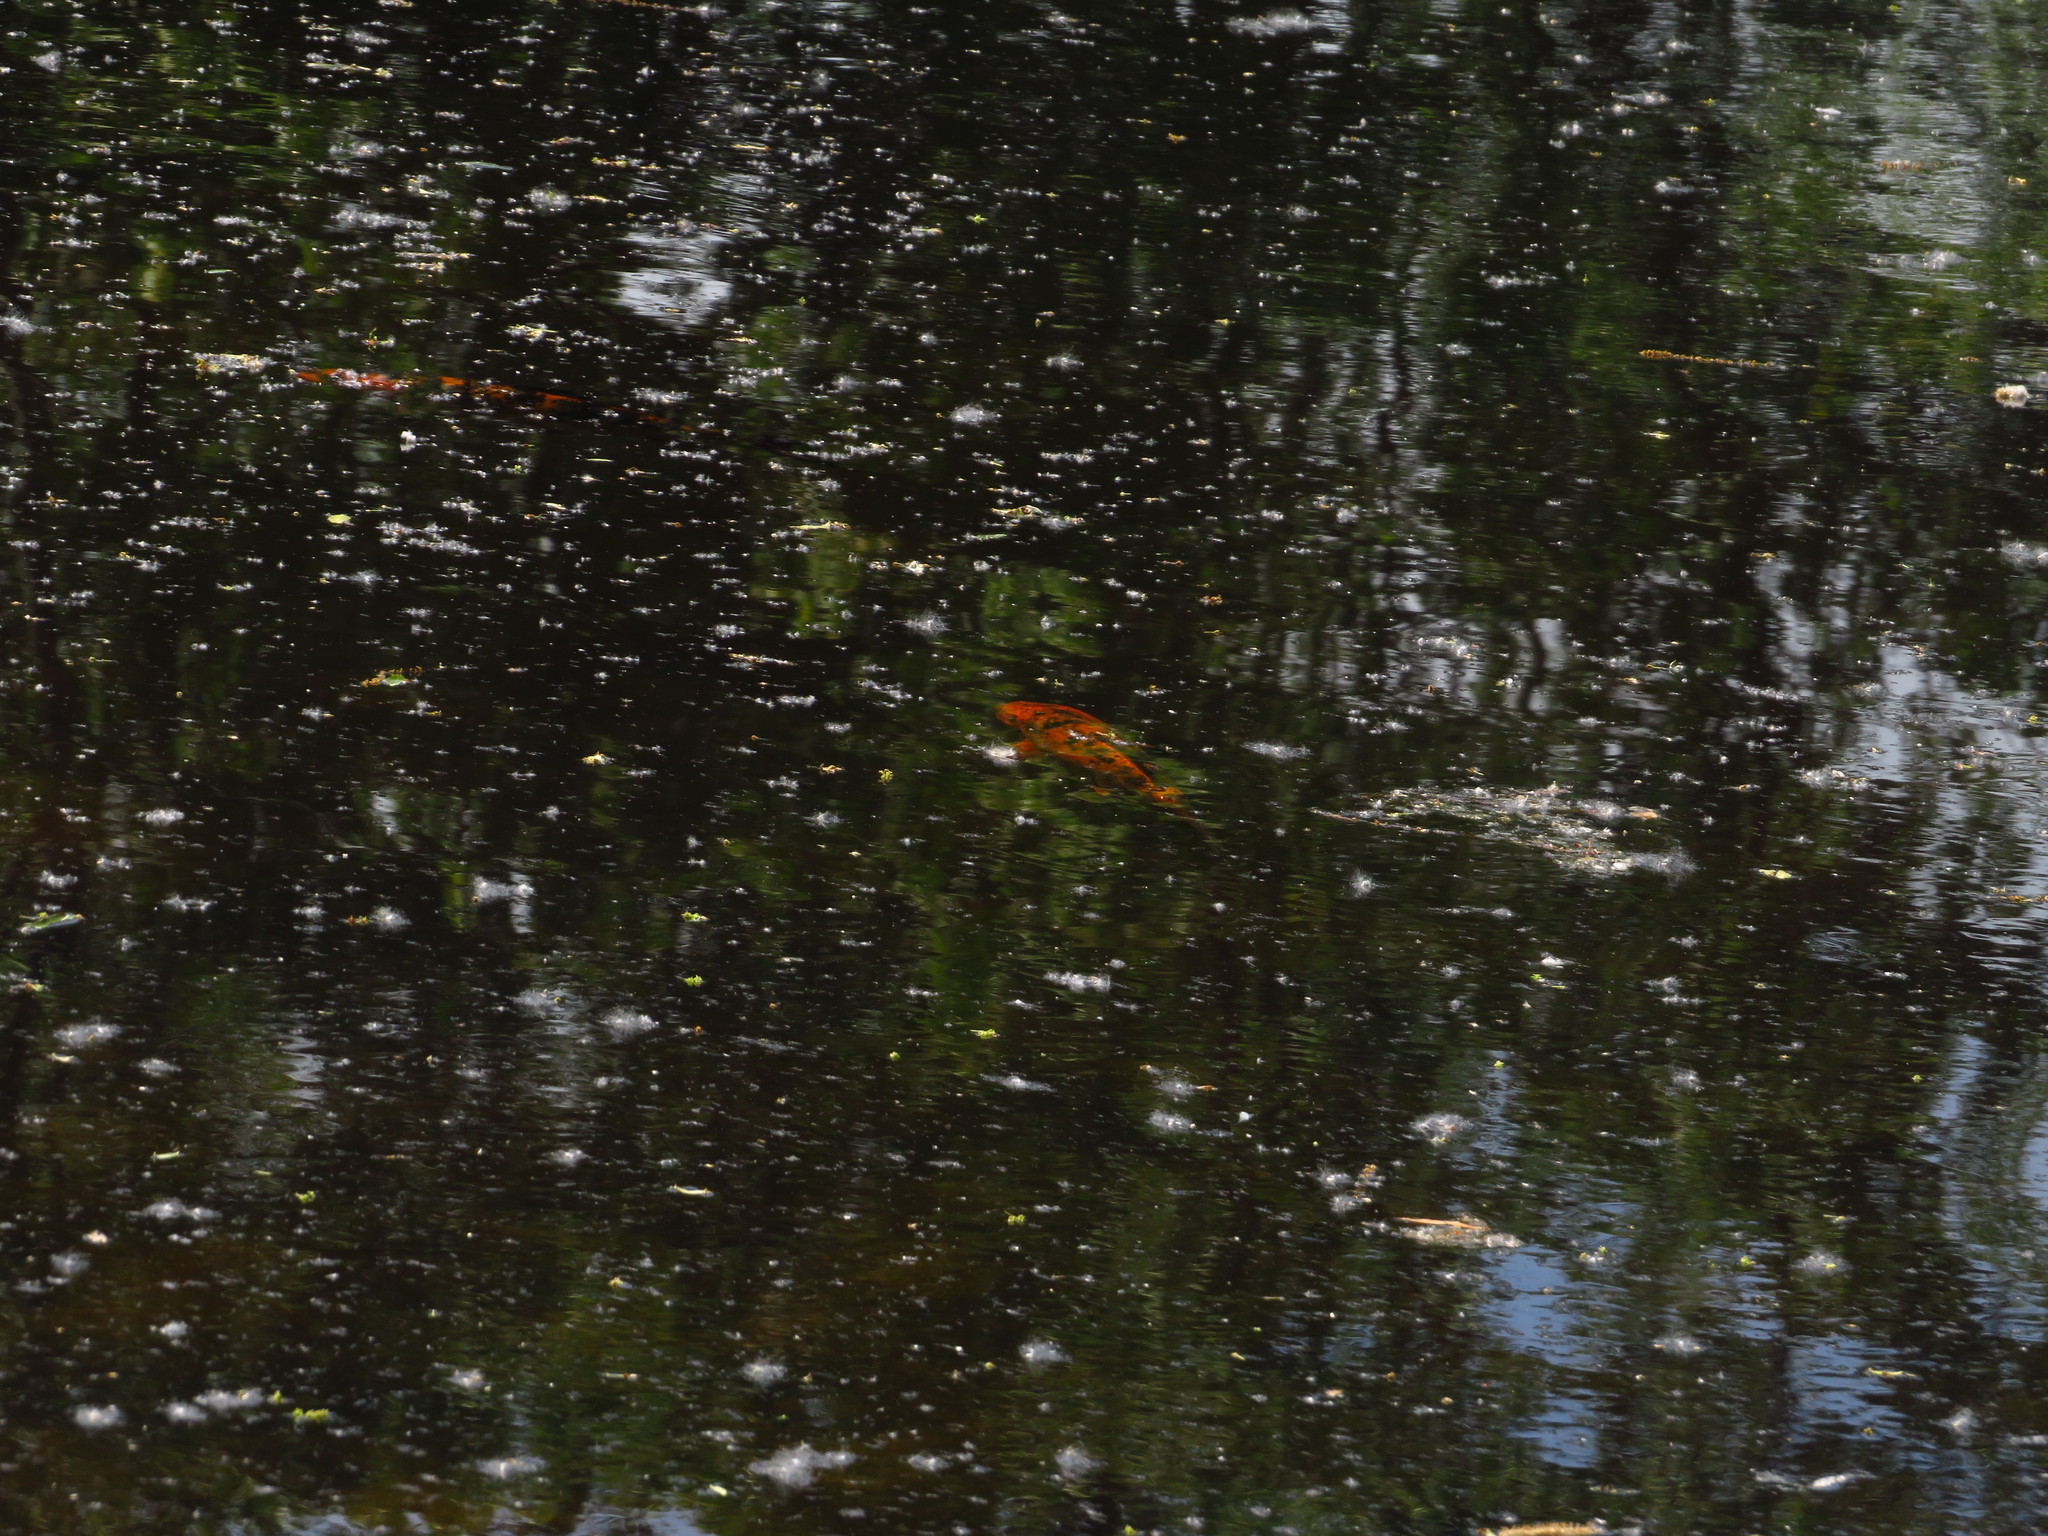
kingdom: Animalia
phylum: Chordata
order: Cypriniformes
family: Cyprinidae
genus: Cyprinus
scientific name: Cyprinus rubrofuscus
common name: Koi
